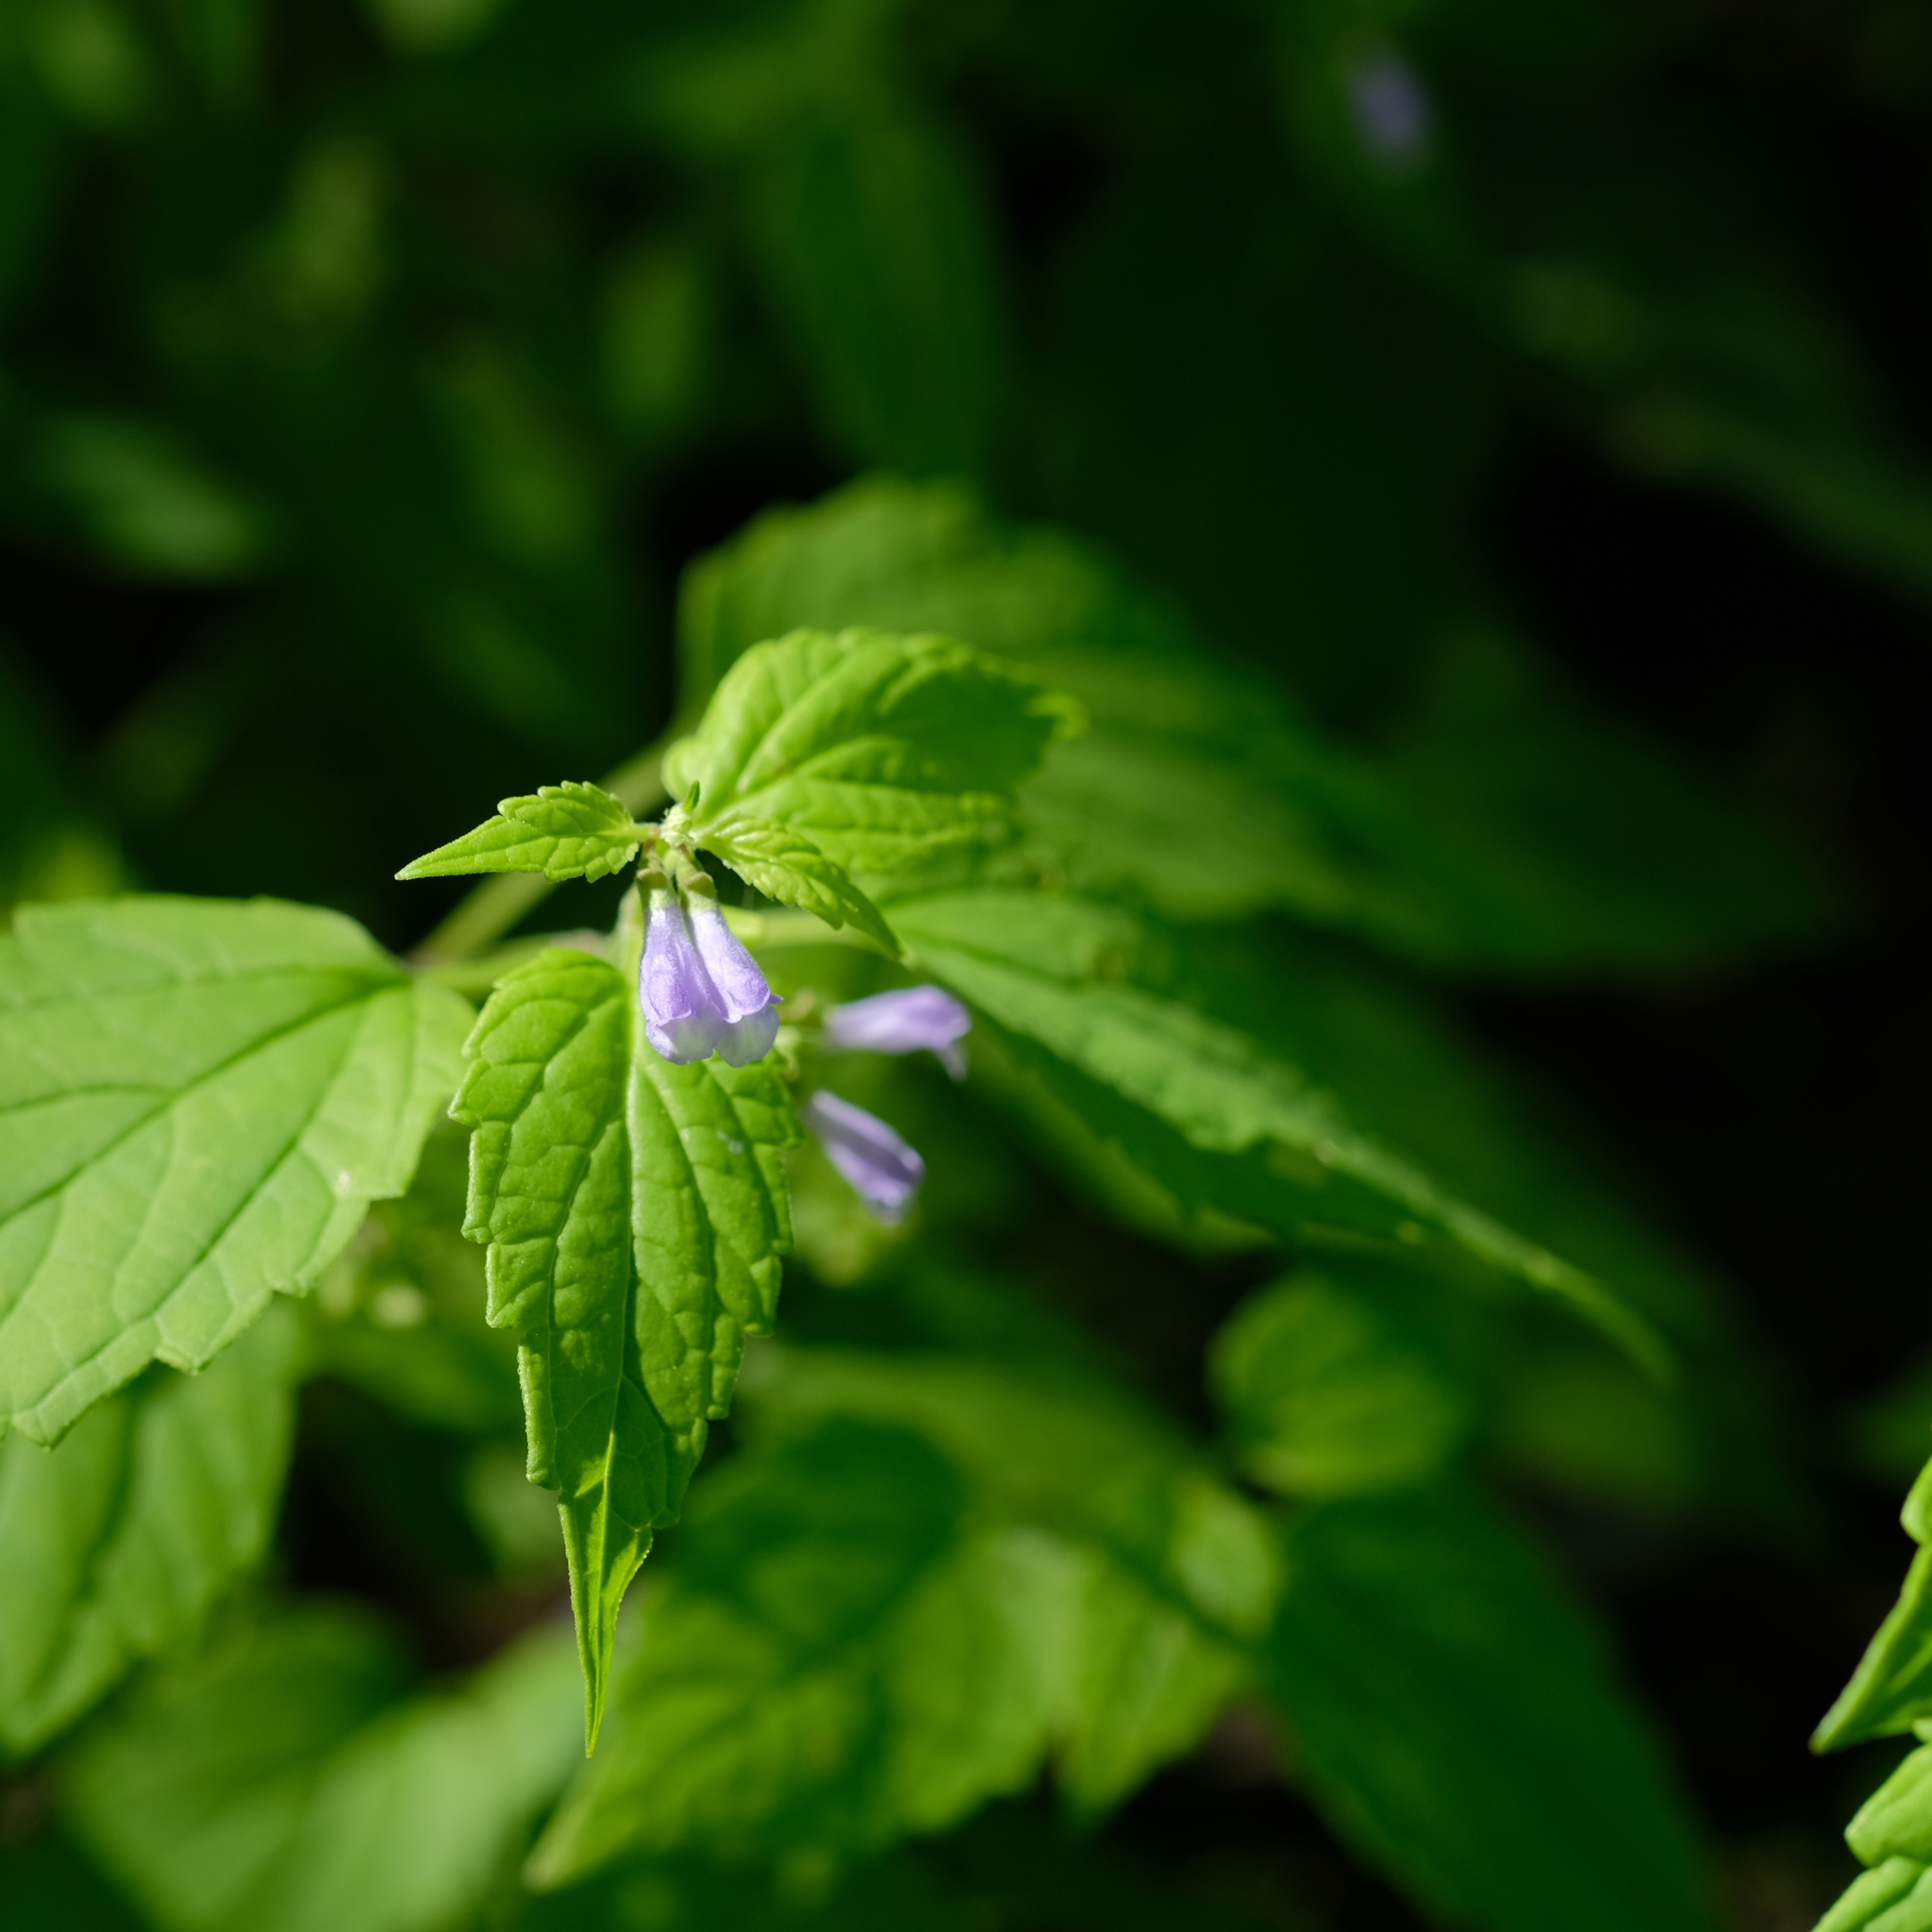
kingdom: Plantae
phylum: Tracheophyta
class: Magnoliopsida
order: Lamiales
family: Lamiaceae
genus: Scutellaria
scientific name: Scutellaria lateriflora
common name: Blue skullcap
